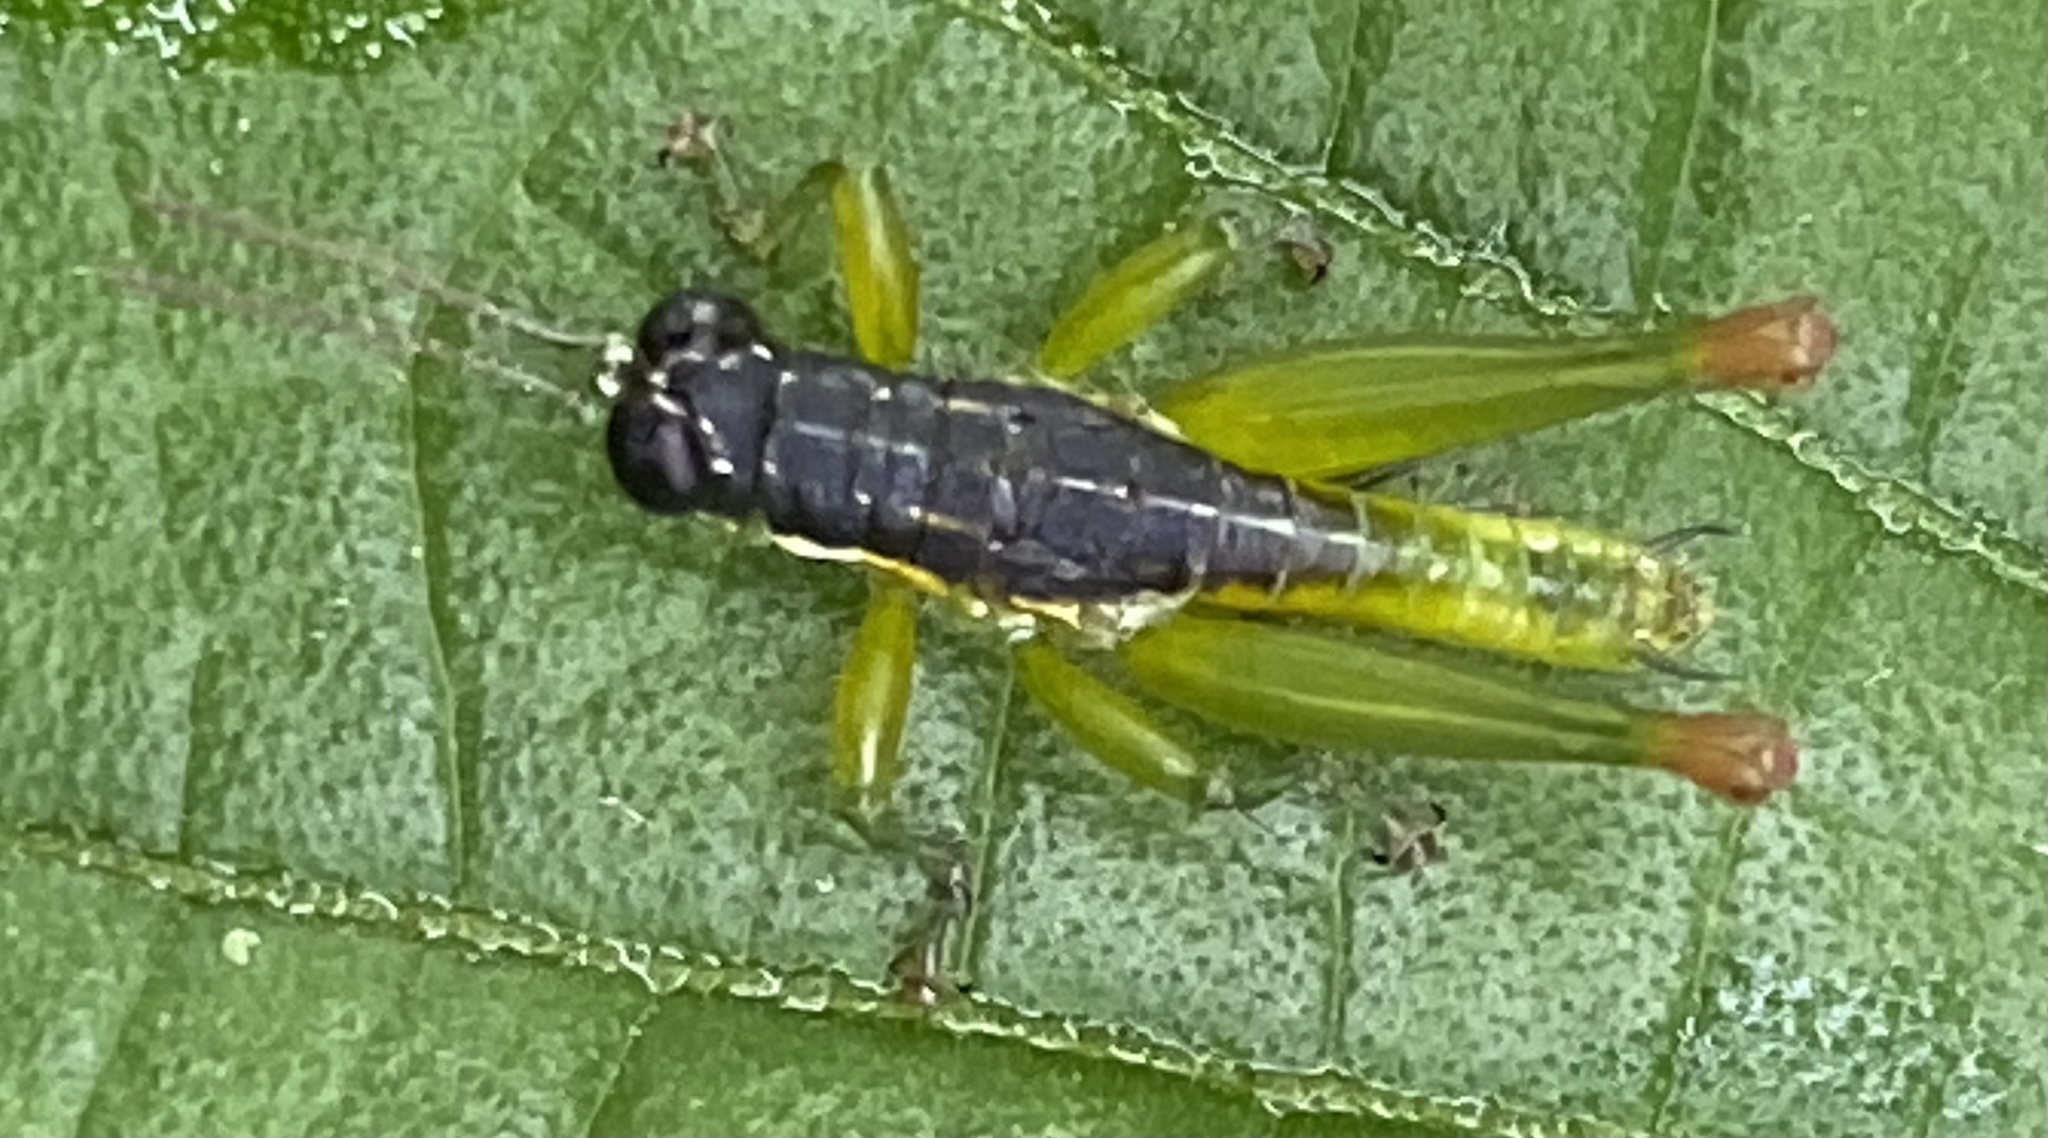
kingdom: Animalia
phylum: Arthropoda
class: Insecta
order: Orthoptera
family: Acrididae
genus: Liebermannacris
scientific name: Liebermannacris dorsualis
